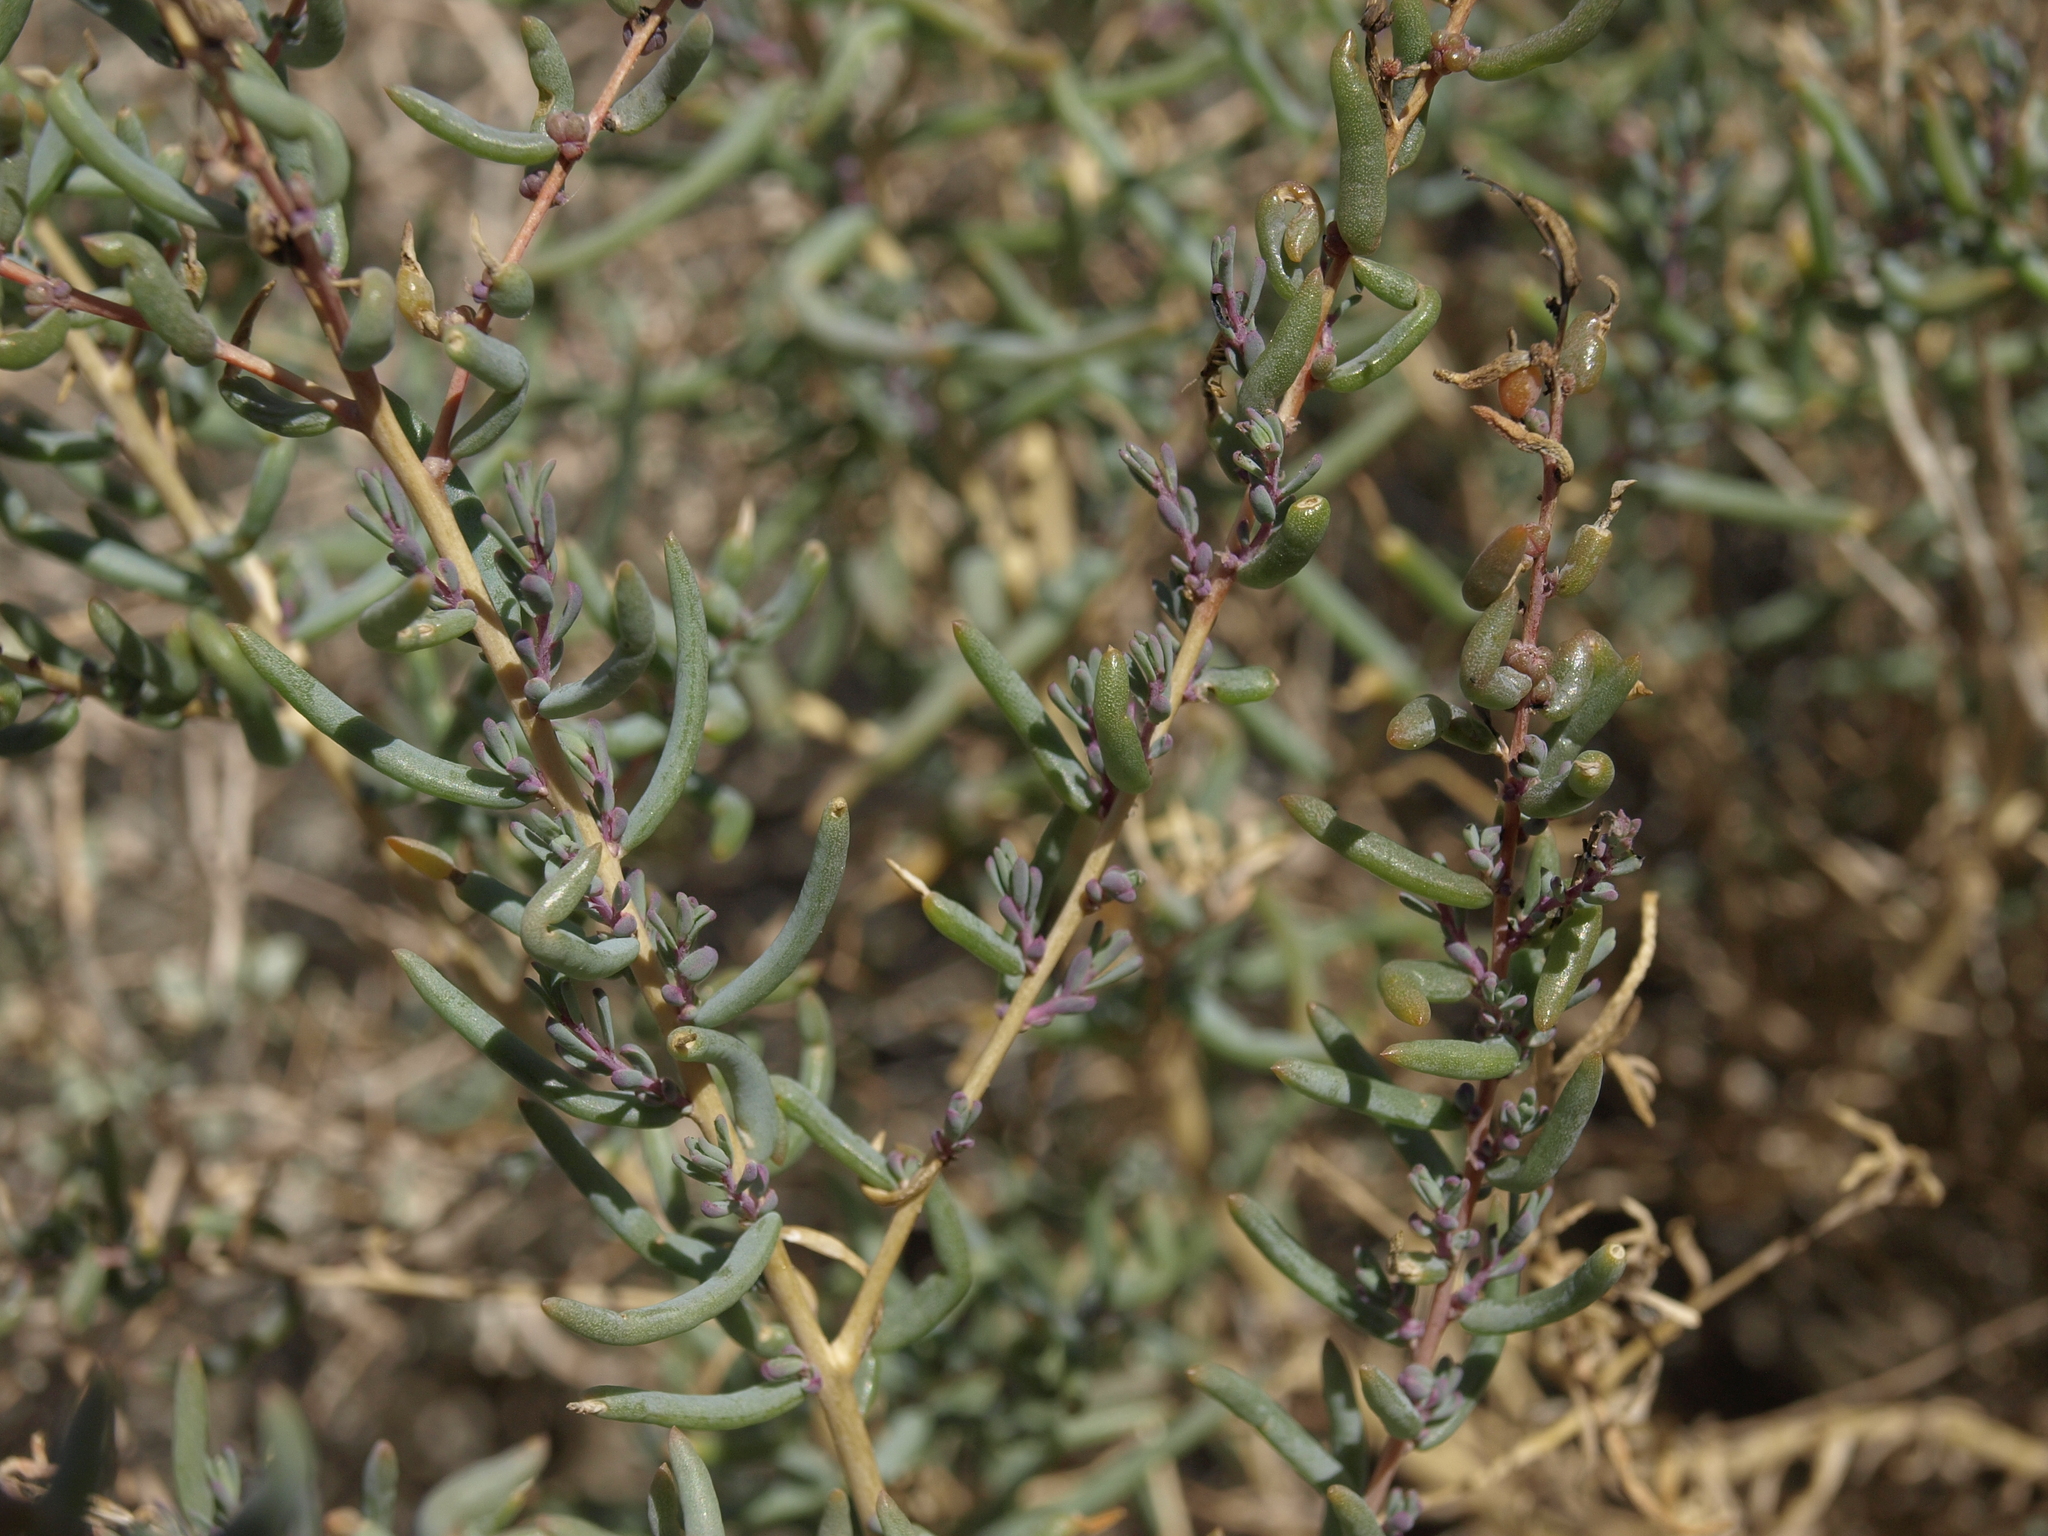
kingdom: Plantae
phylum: Tracheophyta
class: Magnoliopsida
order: Caryophyllales
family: Amaranthaceae
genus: Suaeda
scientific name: Suaeda nigra
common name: Bush seepweed
